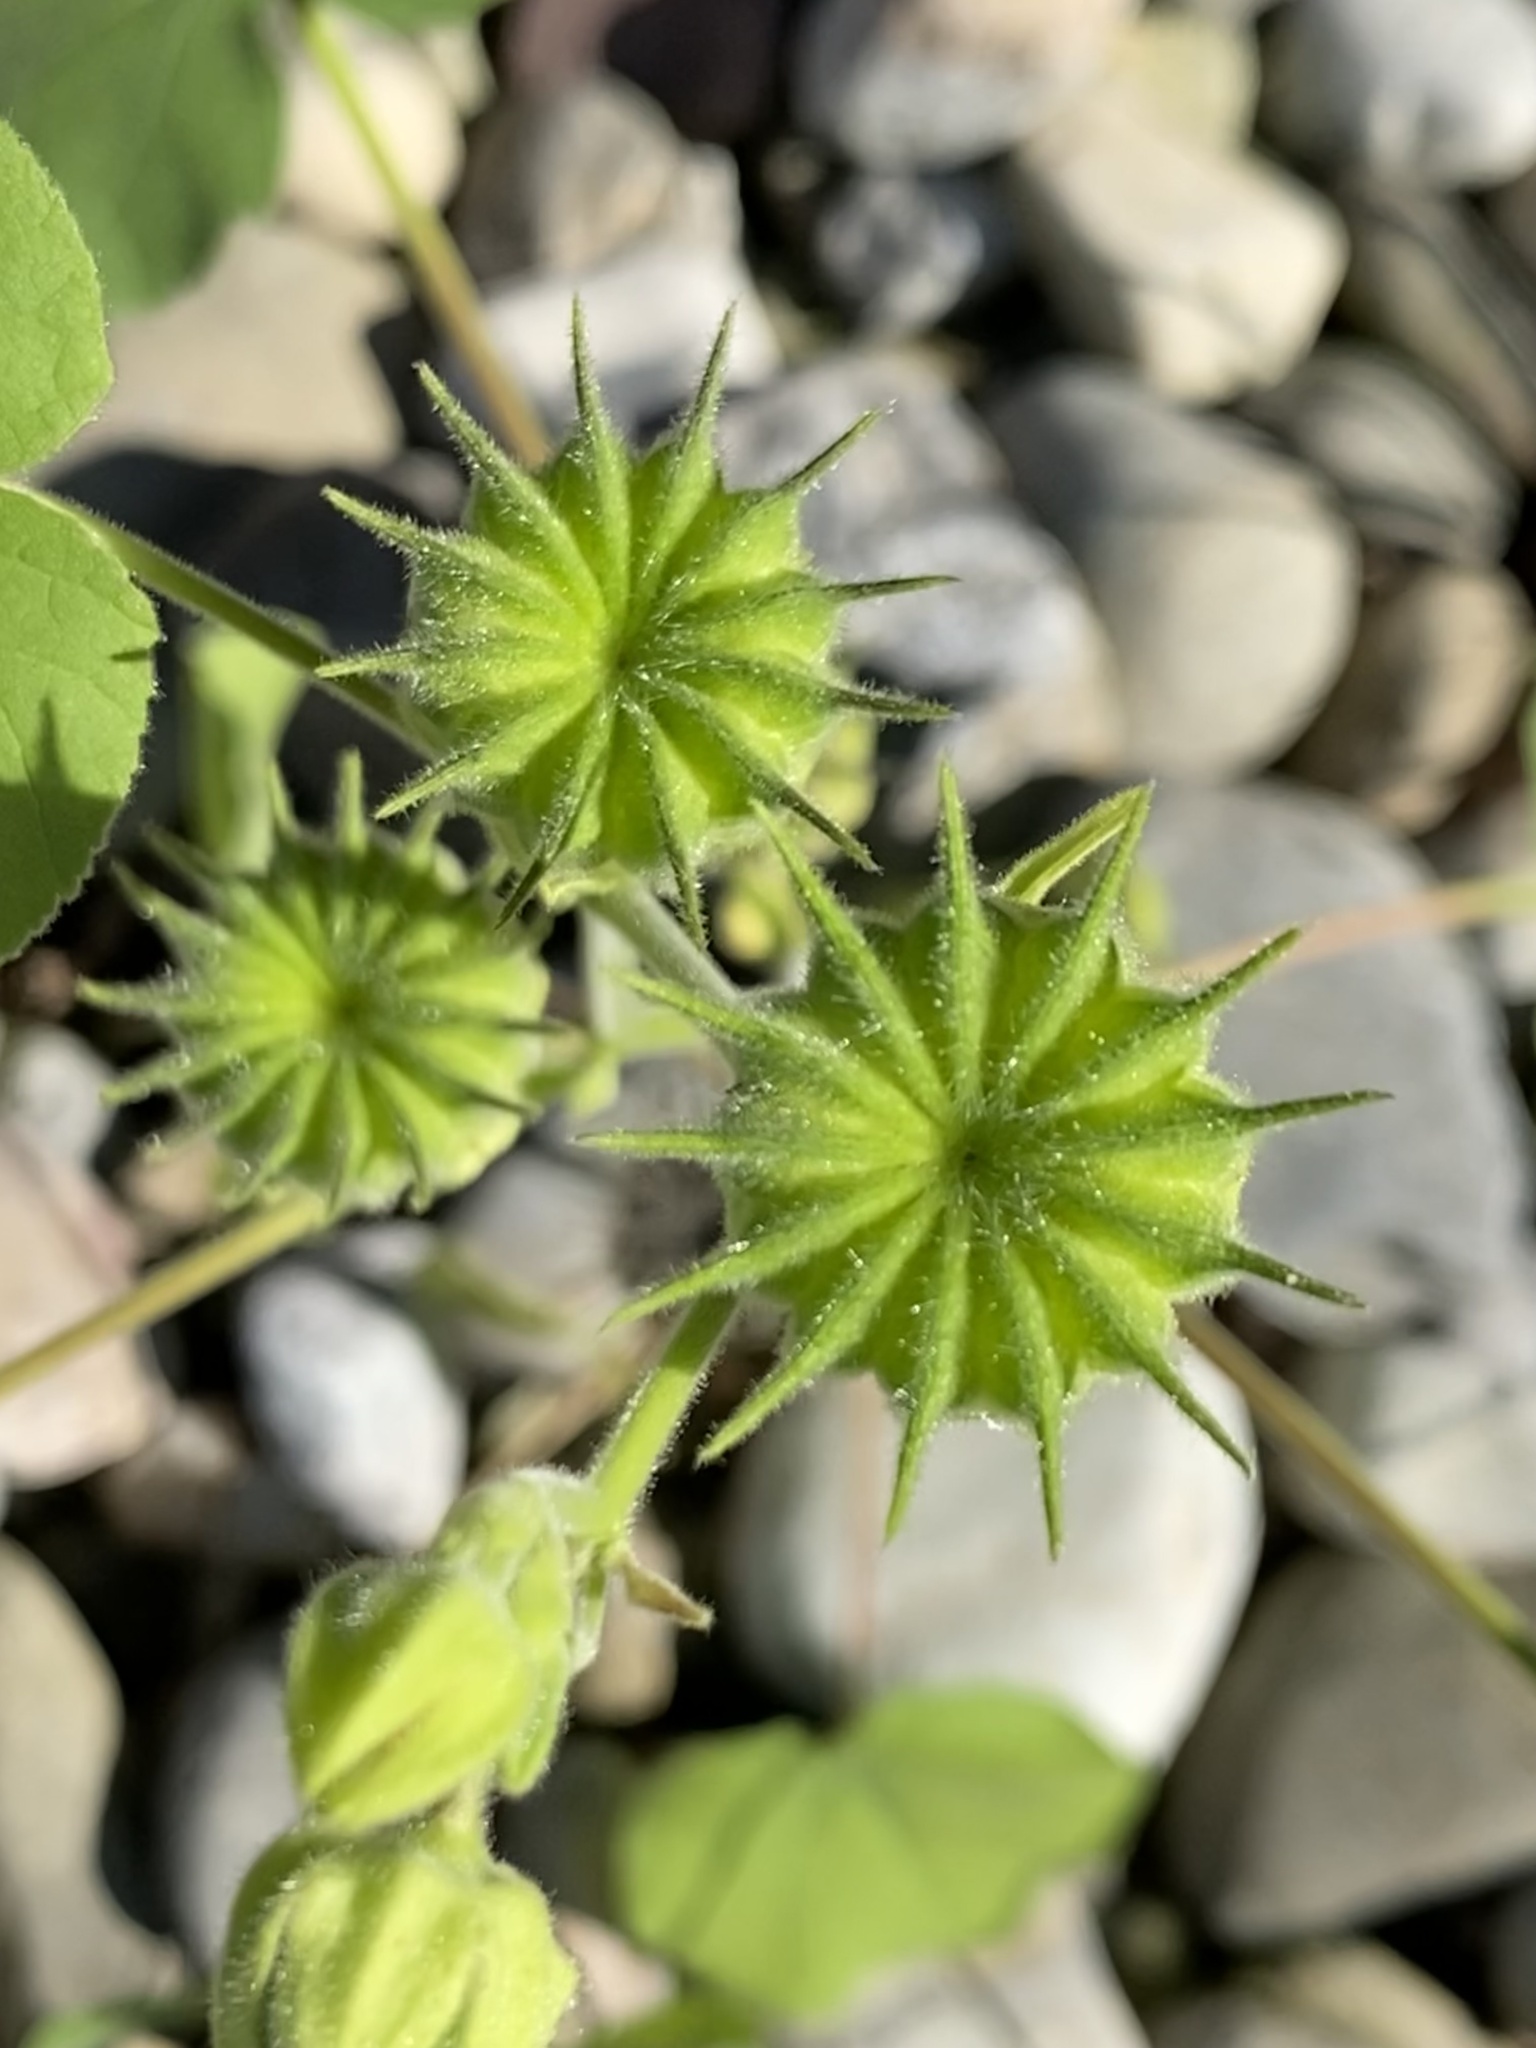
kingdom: Plantae
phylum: Tracheophyta
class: Magnoliopsida
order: Malvales
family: Malvaceae
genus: Abutilon
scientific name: Abutilon theophrasti
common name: Velvetleaf
